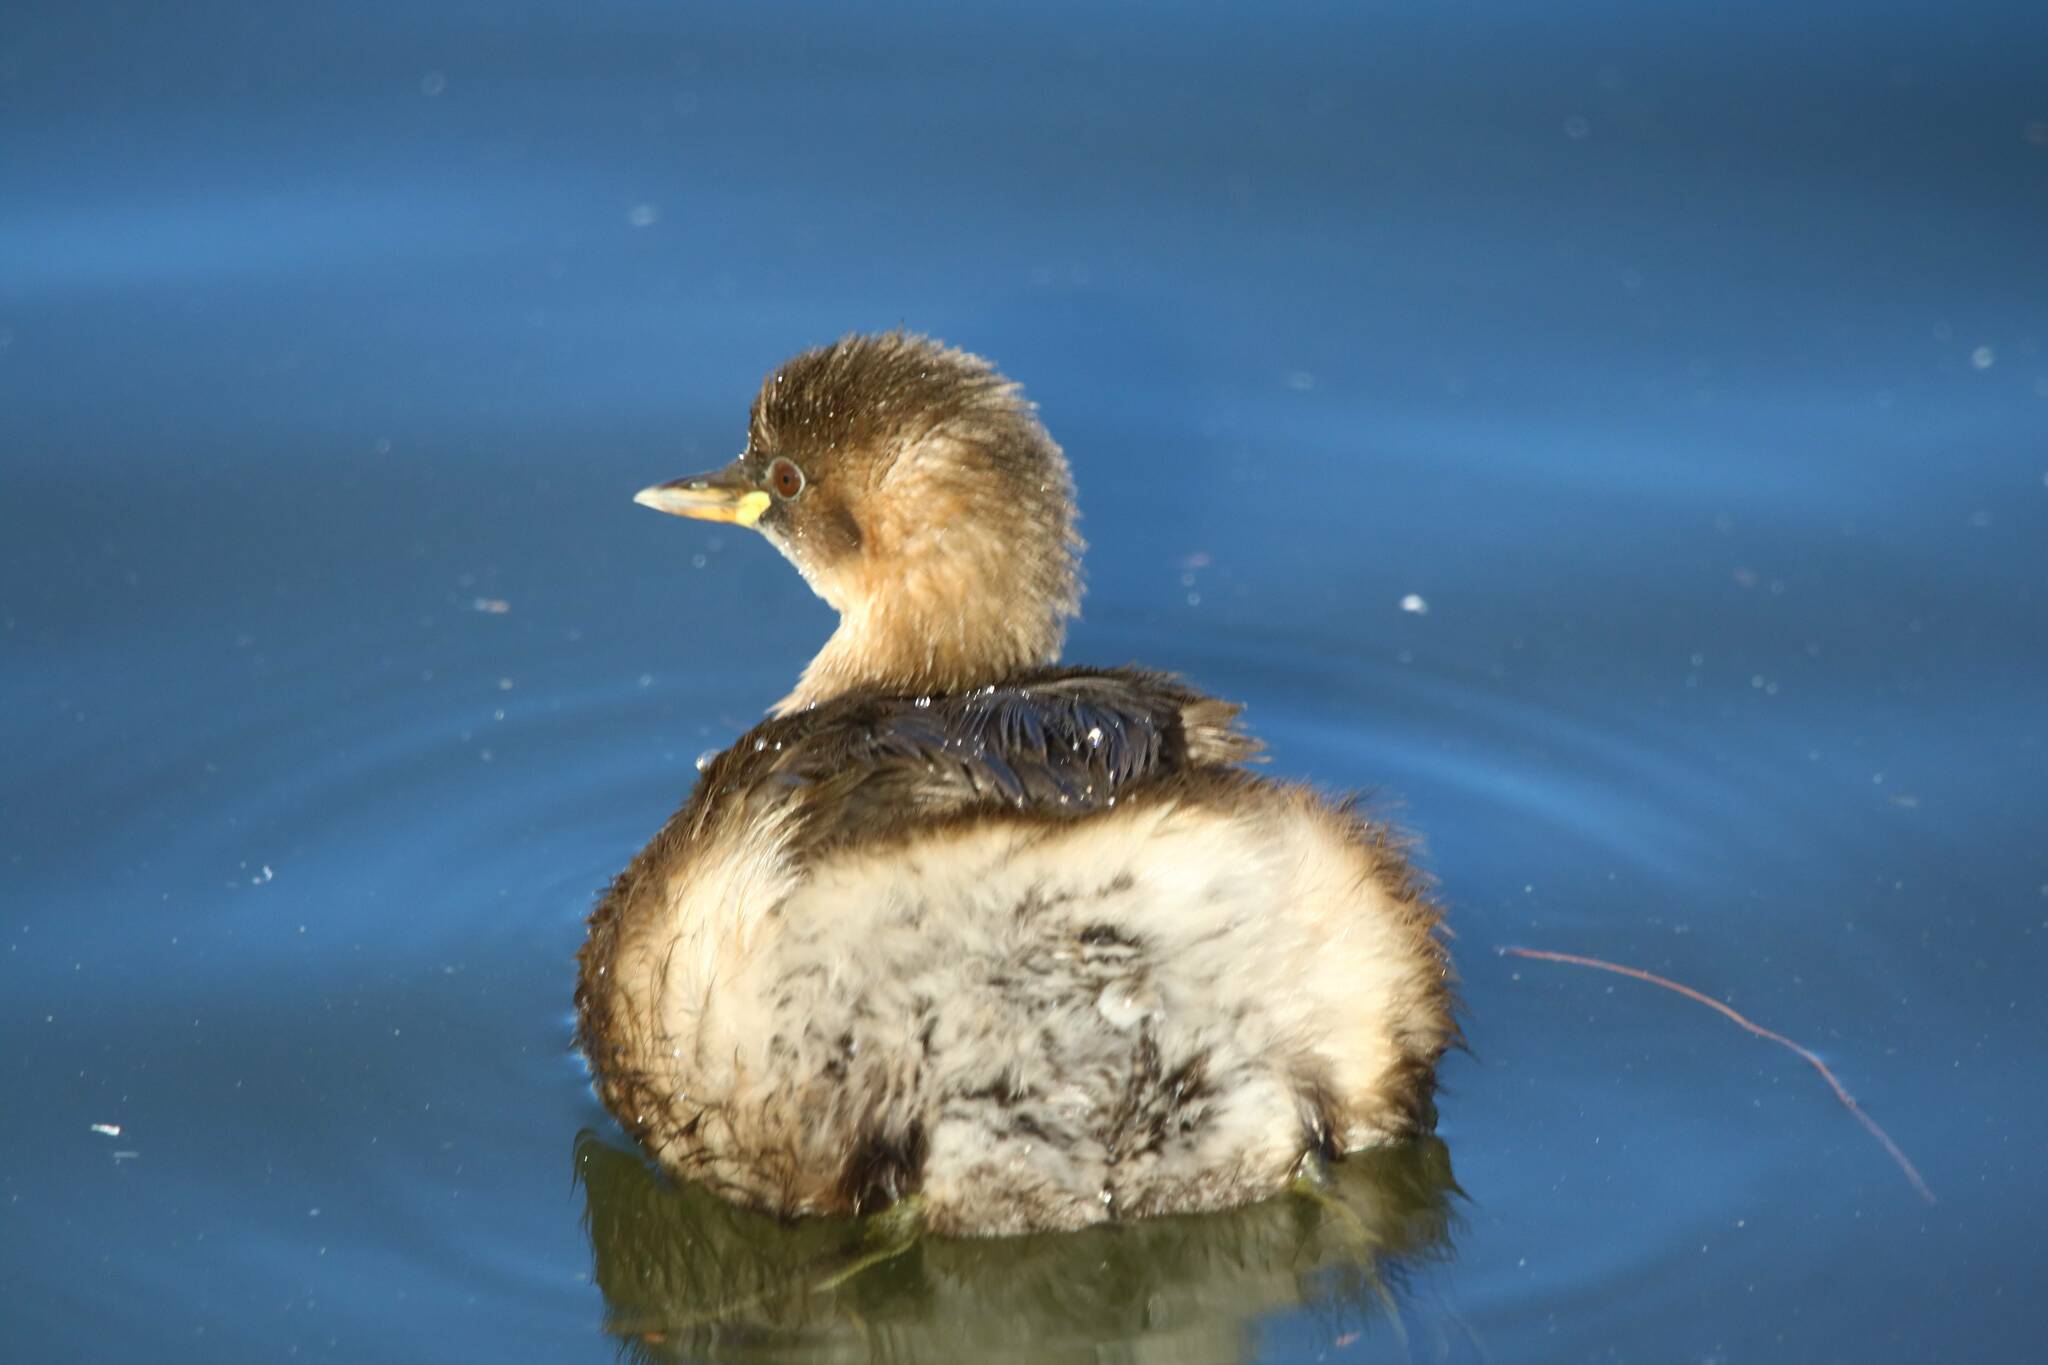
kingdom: Animalia
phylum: Chordata
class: Aves
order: Podicipediformes
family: Podicipedidae
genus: Tachybaptus
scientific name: Tachybaptus ruficollis
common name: Little grebe
